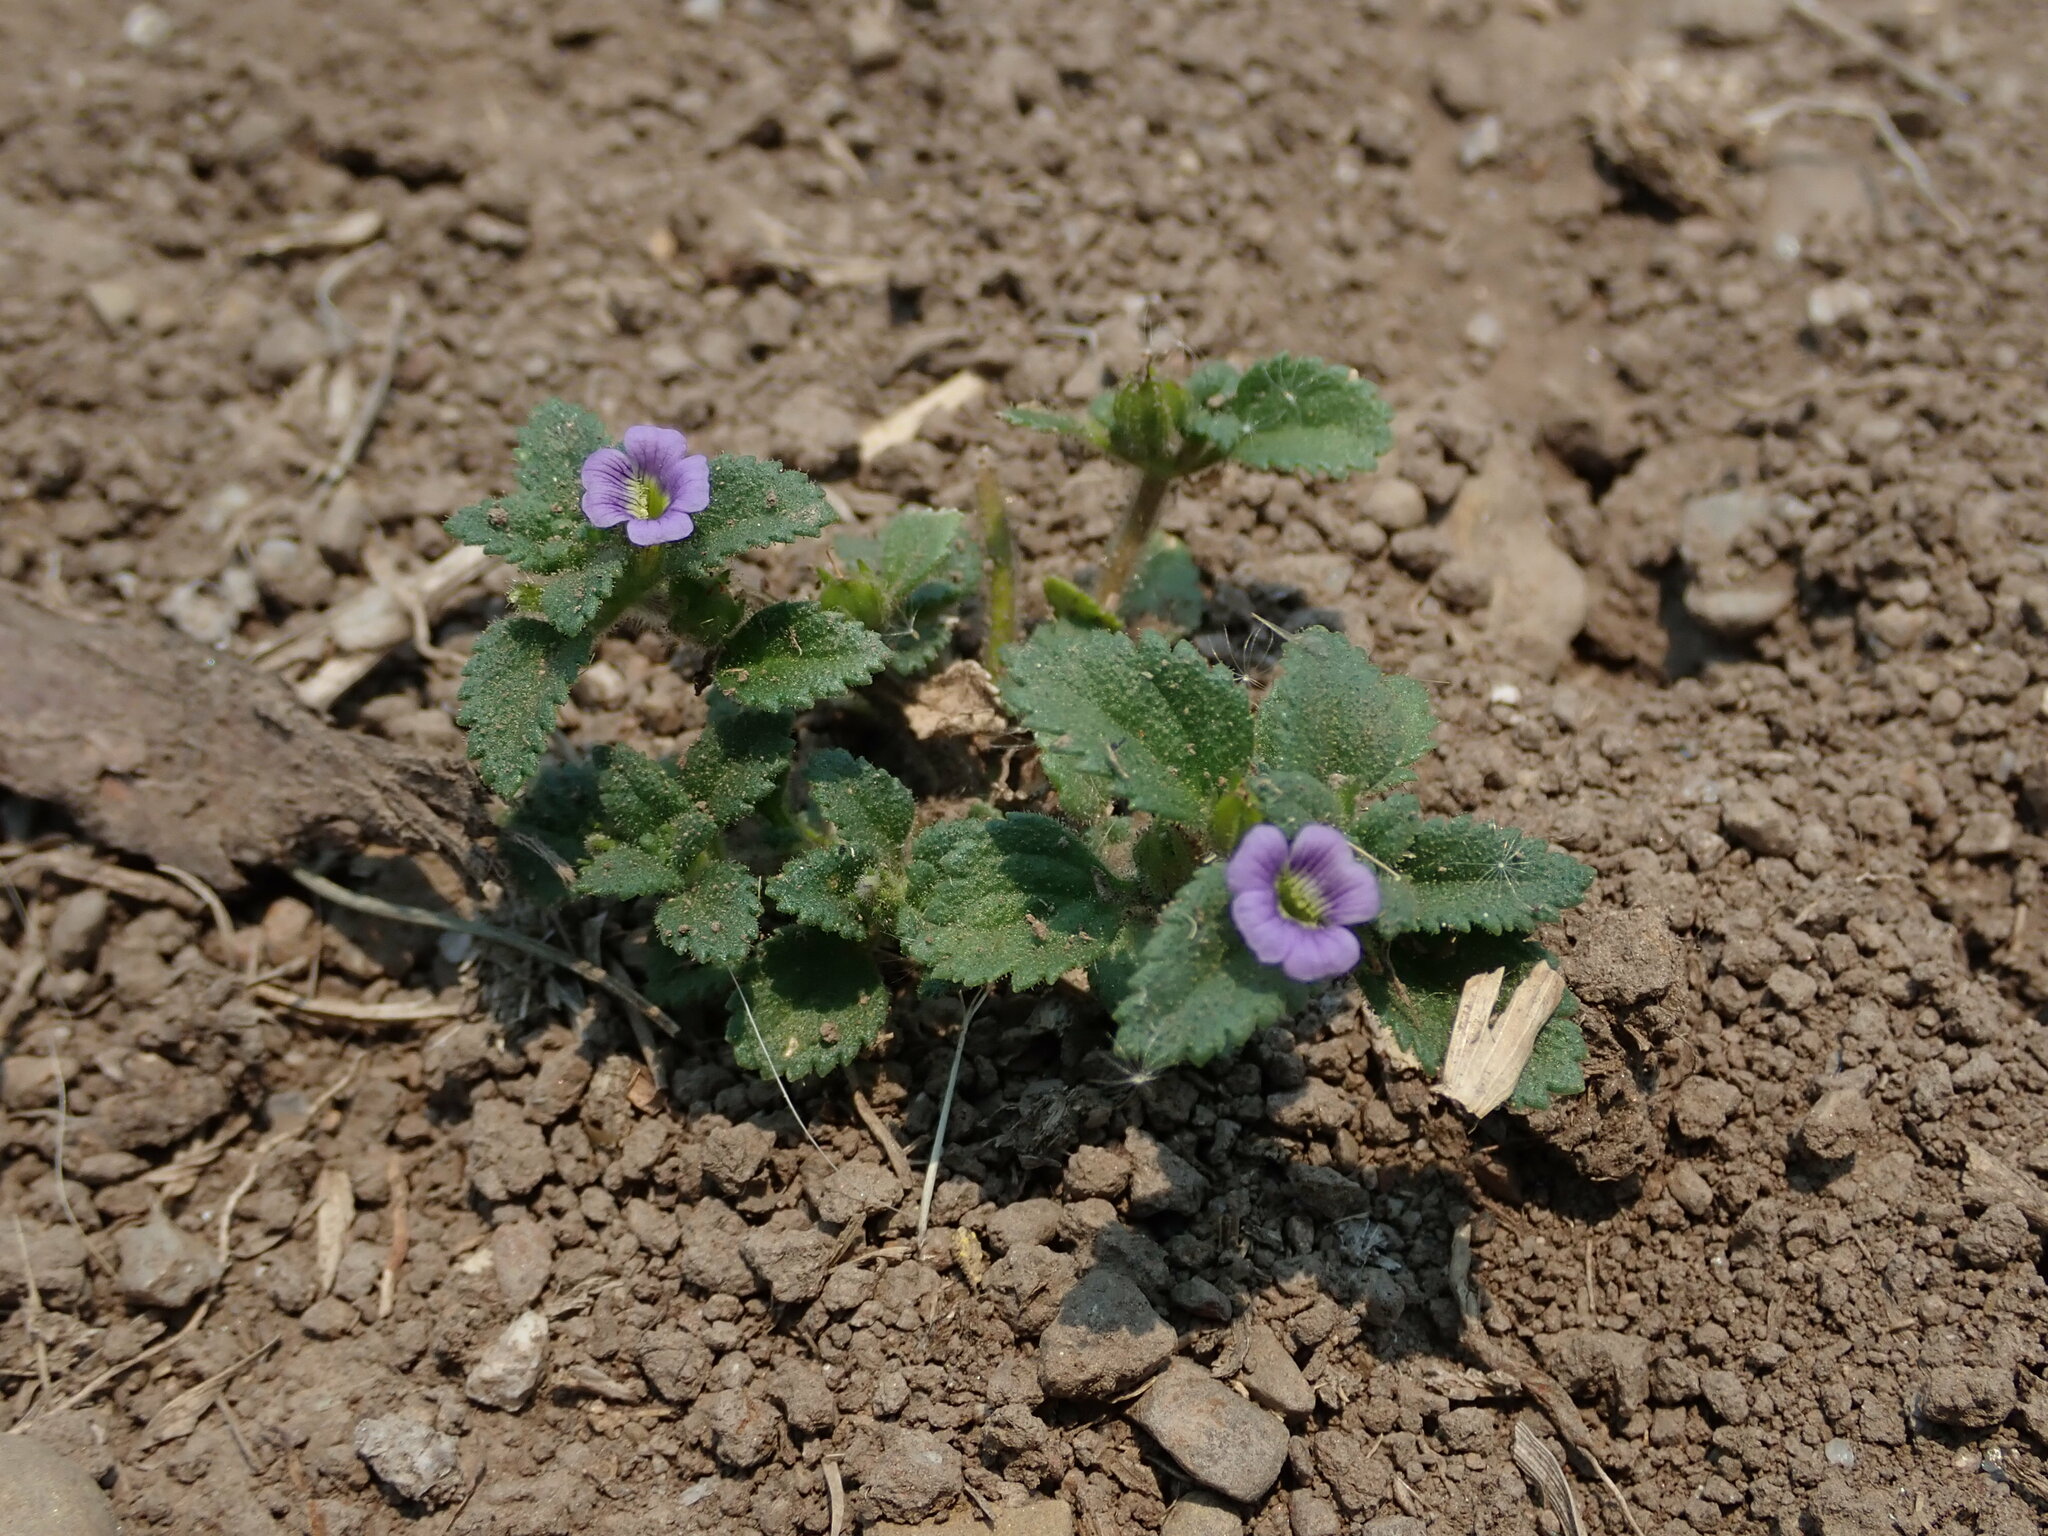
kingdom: Plantae
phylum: Tracheophyta
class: Magnoliopsida
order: Lamiales
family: Plantaginaceae
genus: Stemodia
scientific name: Stemodia verticillata
